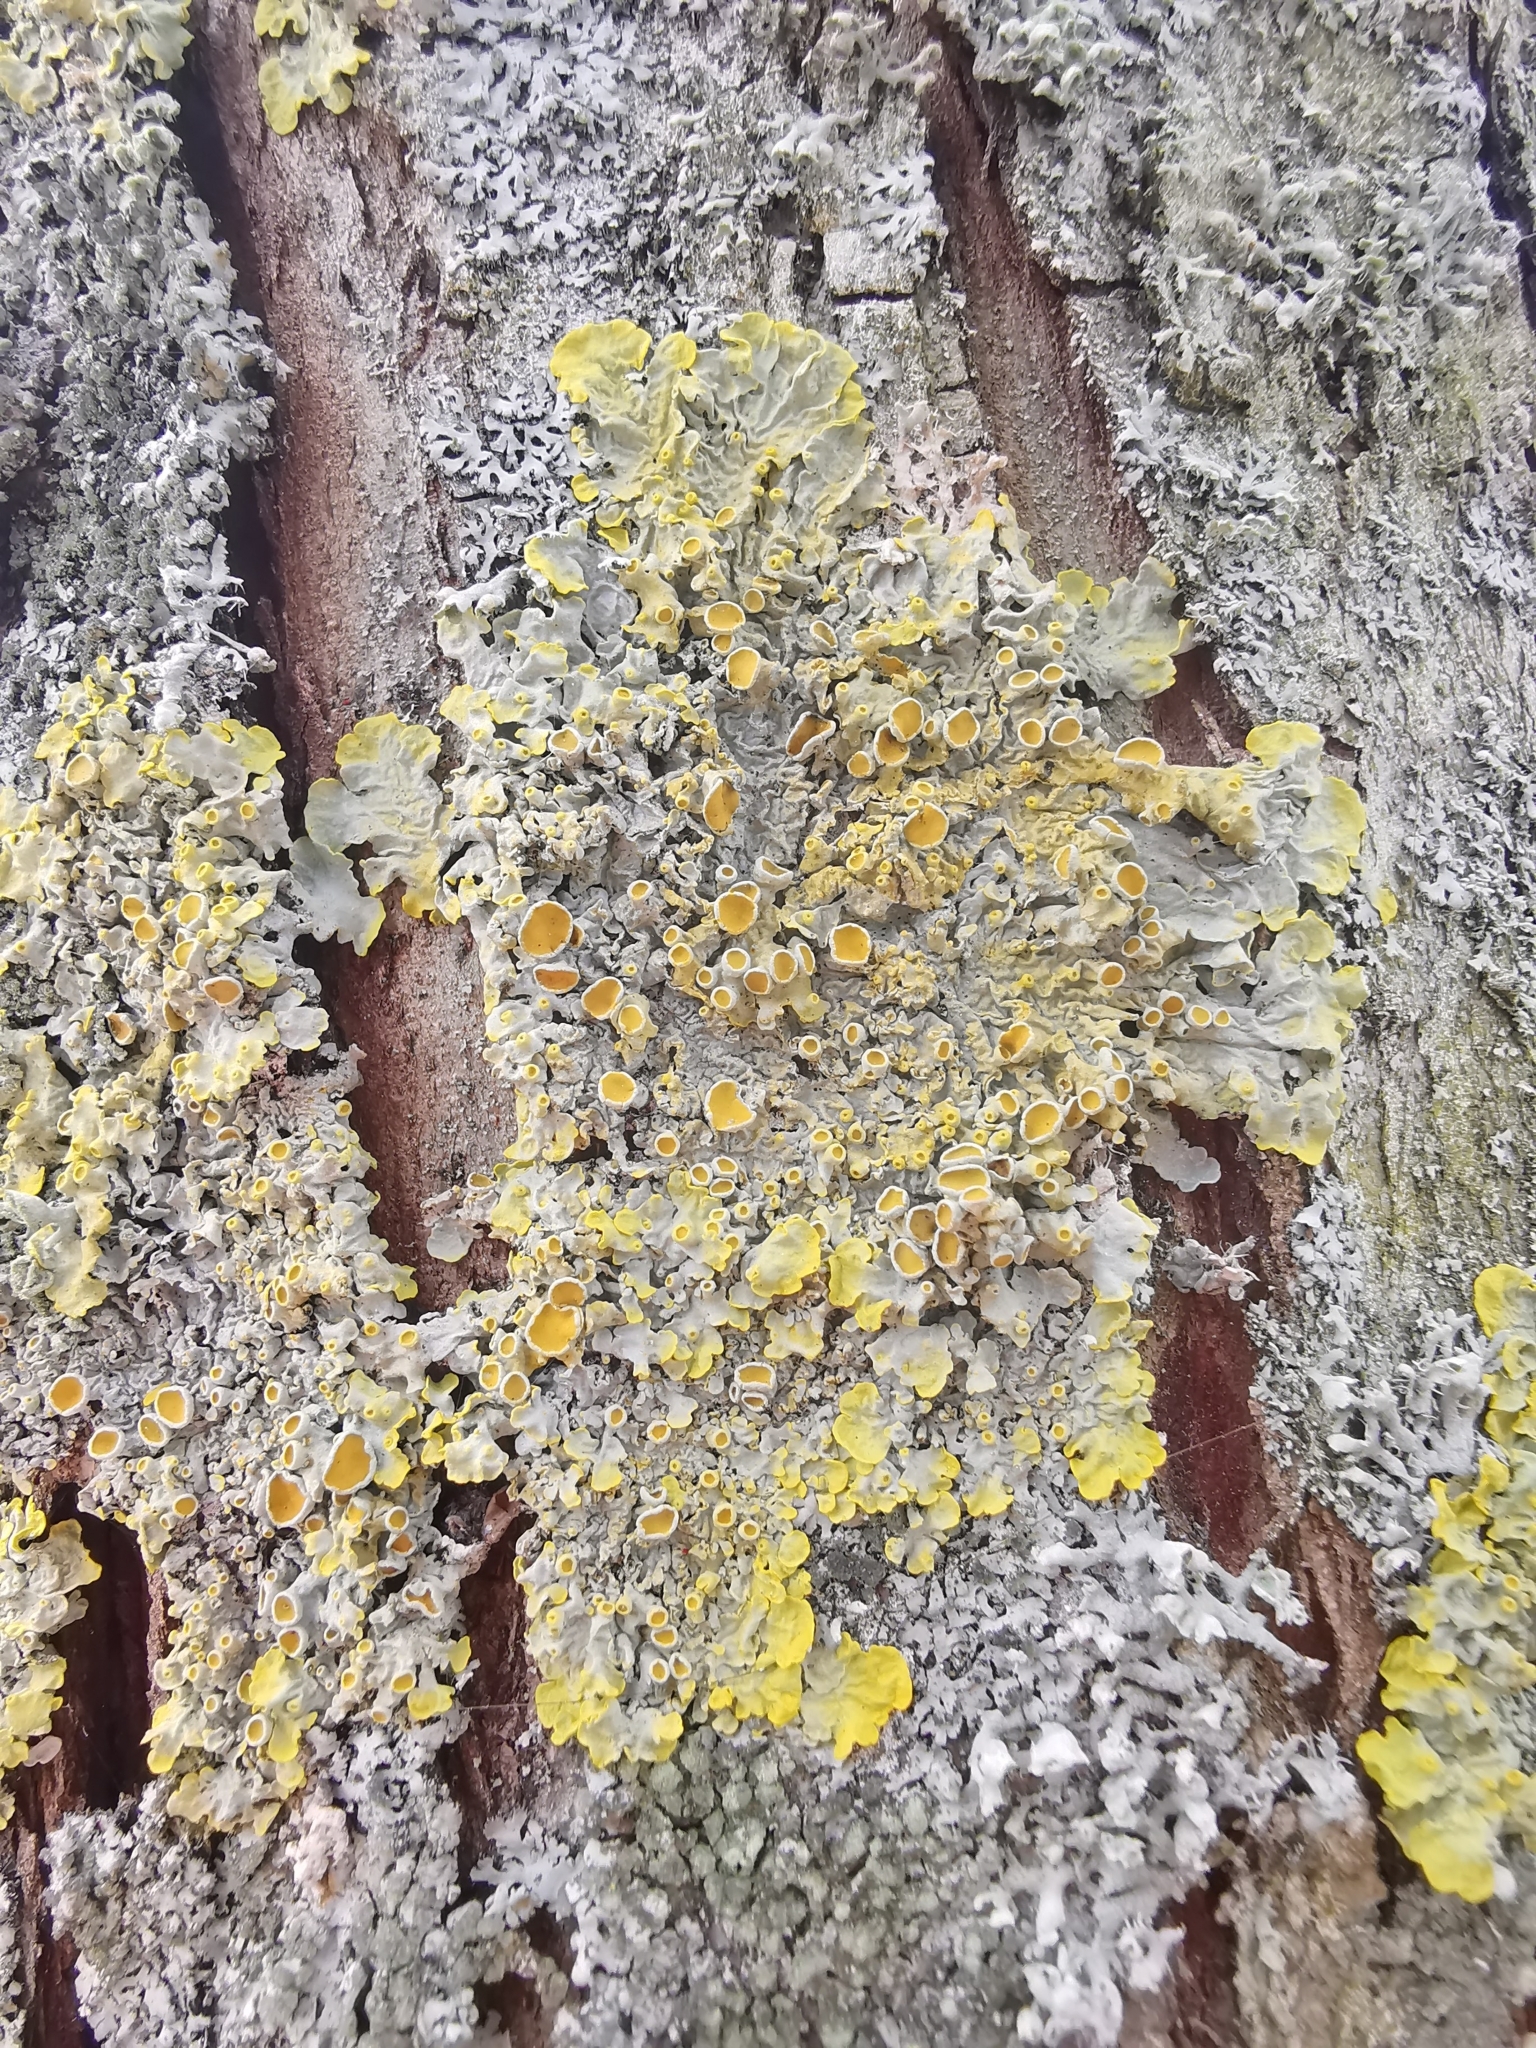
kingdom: Fungi
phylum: Ascomycota
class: Lecanoromycetes
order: Teloschistales
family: Teloschistaceae
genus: Xanthoria
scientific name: Xanthoria parietina
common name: Common orange lichen
